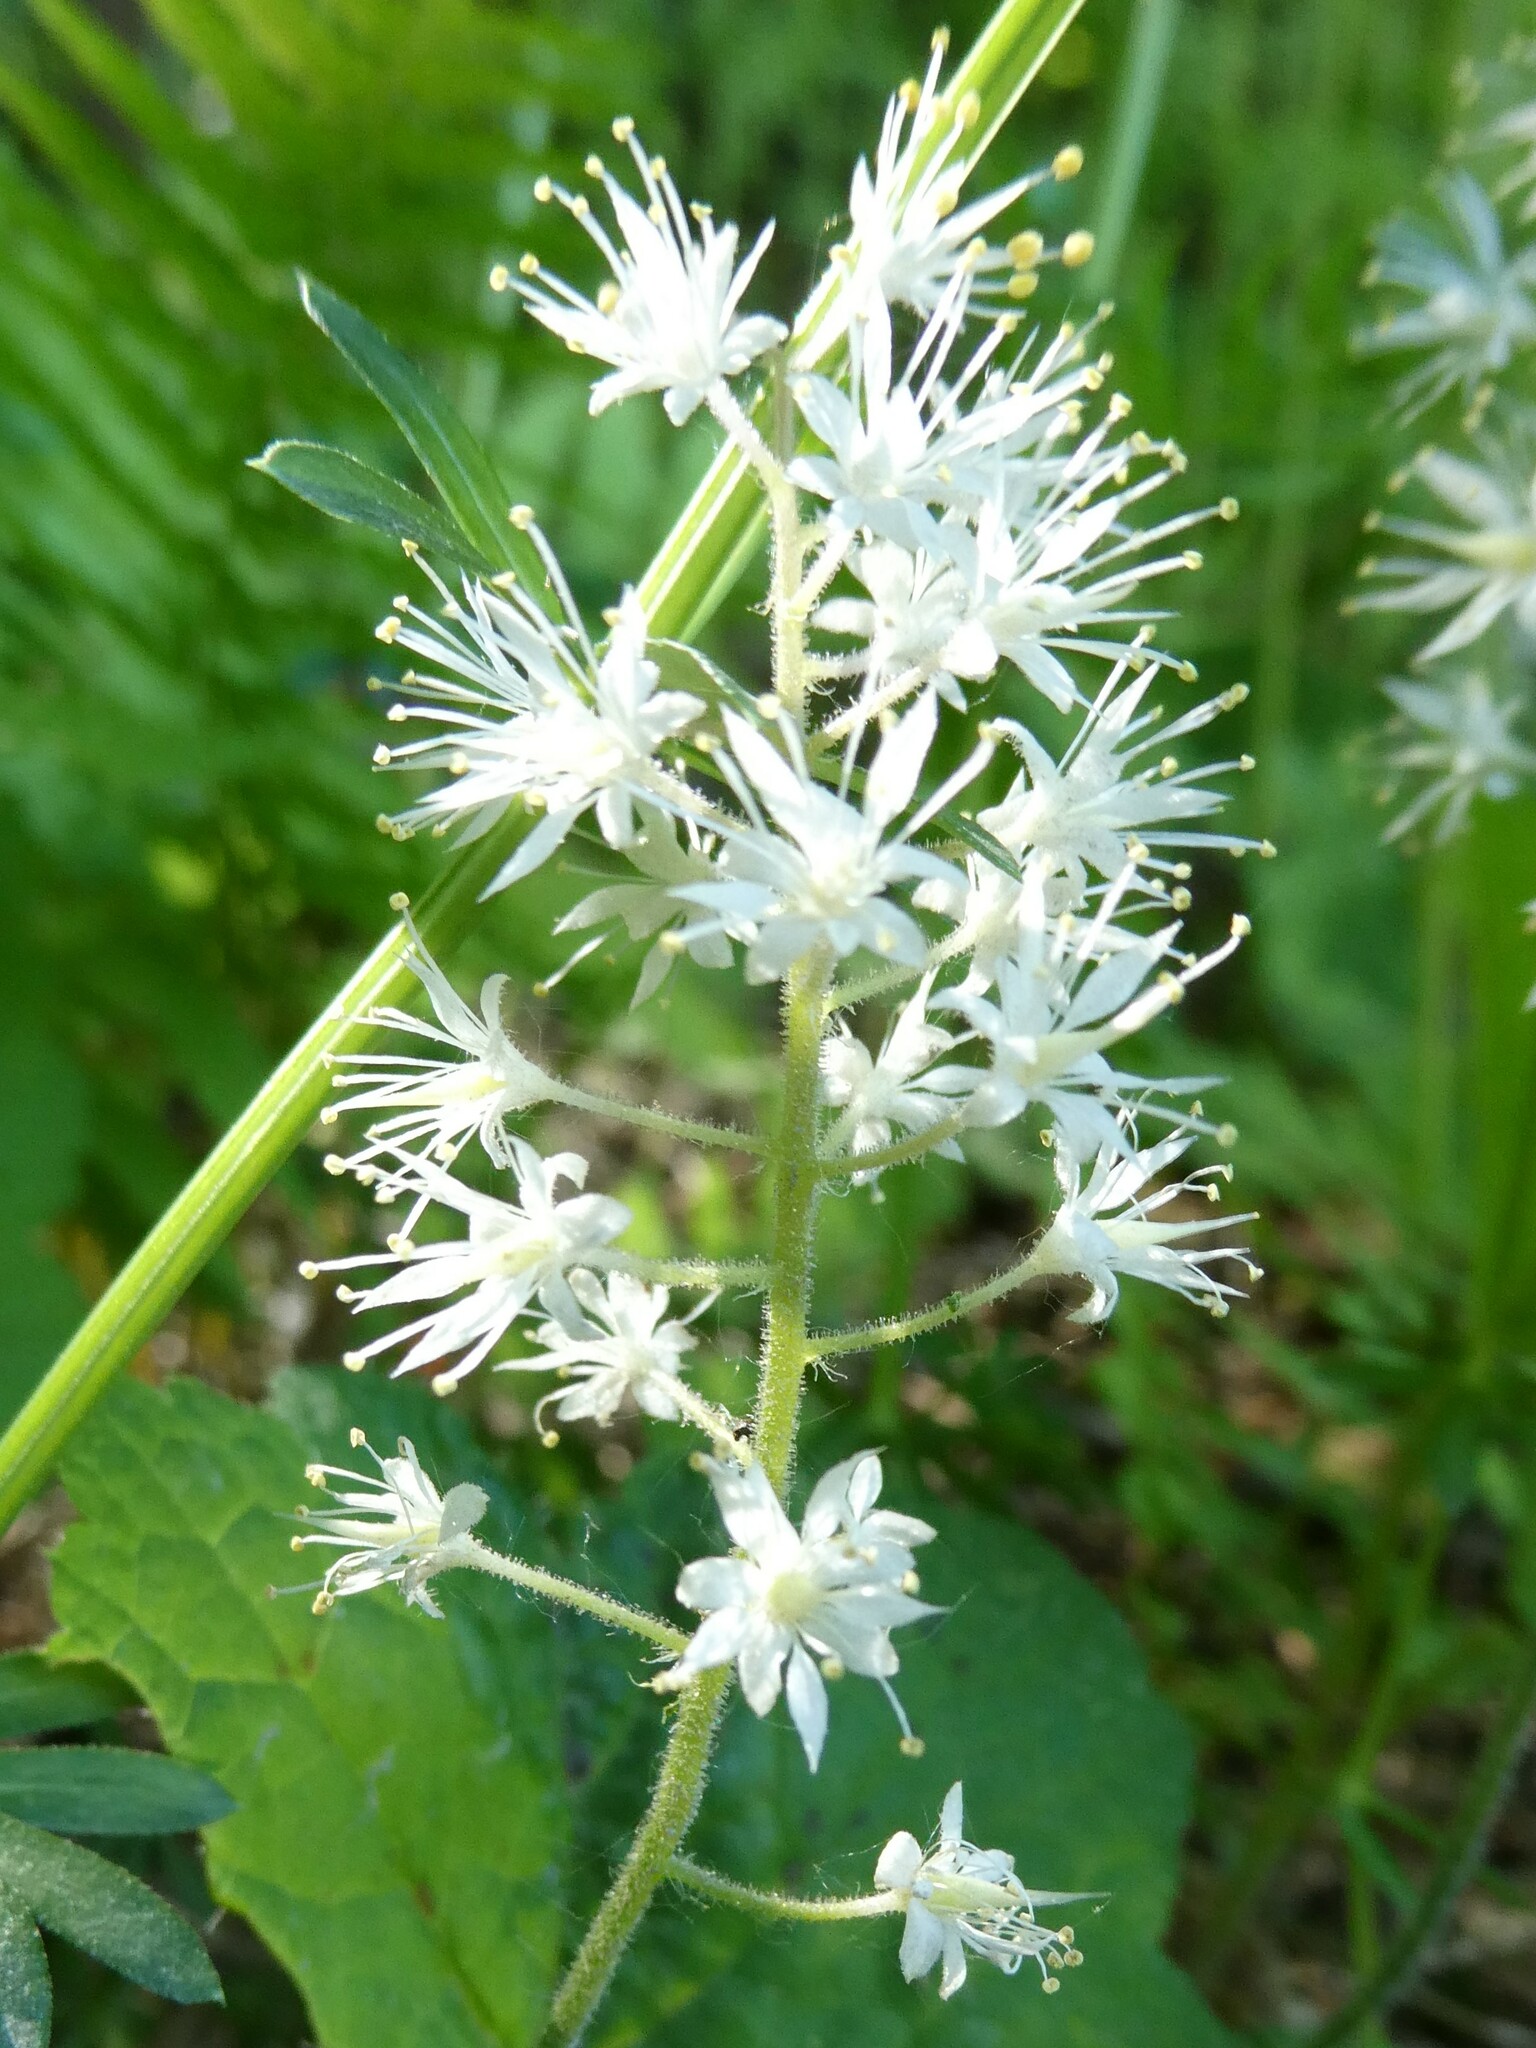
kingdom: Plantae
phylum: Tracheophyta
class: Magnoliopsida
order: Saxifragales
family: Saxifragaceae
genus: Tiarella
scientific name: Tiarella stolonifera
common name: Stoloniferous foamflower
